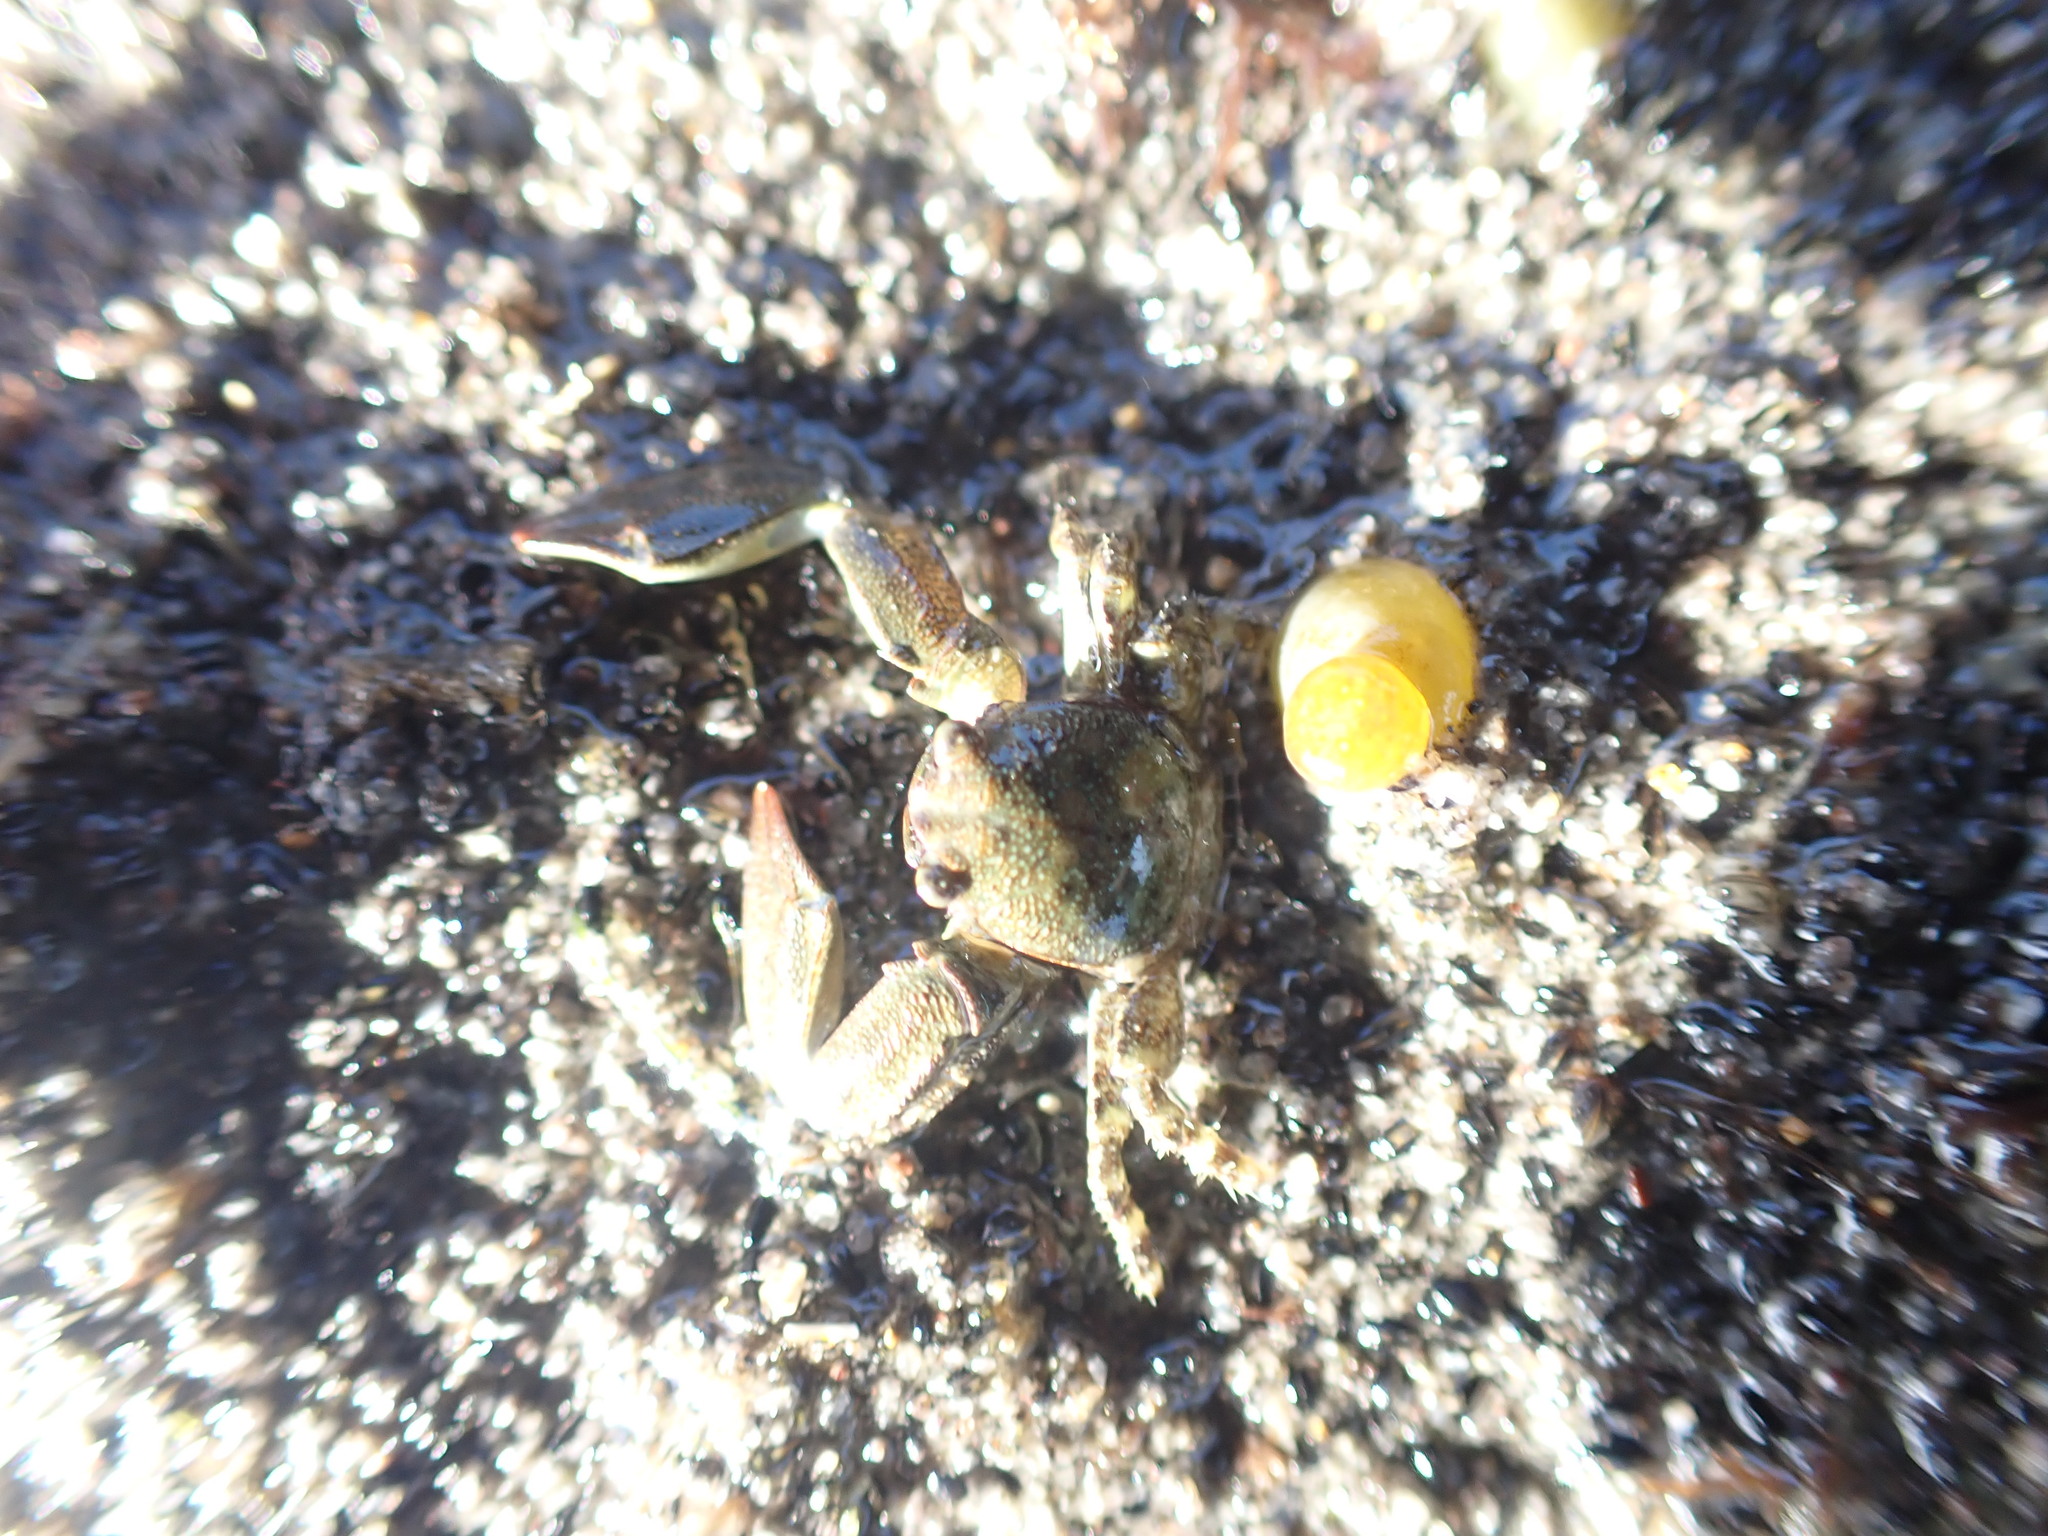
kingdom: Animalia
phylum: Arthropoda
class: Malacostraca
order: Decapoda
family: Porcellanidae
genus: Petrolisthes
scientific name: Petrolisthes elongatus
